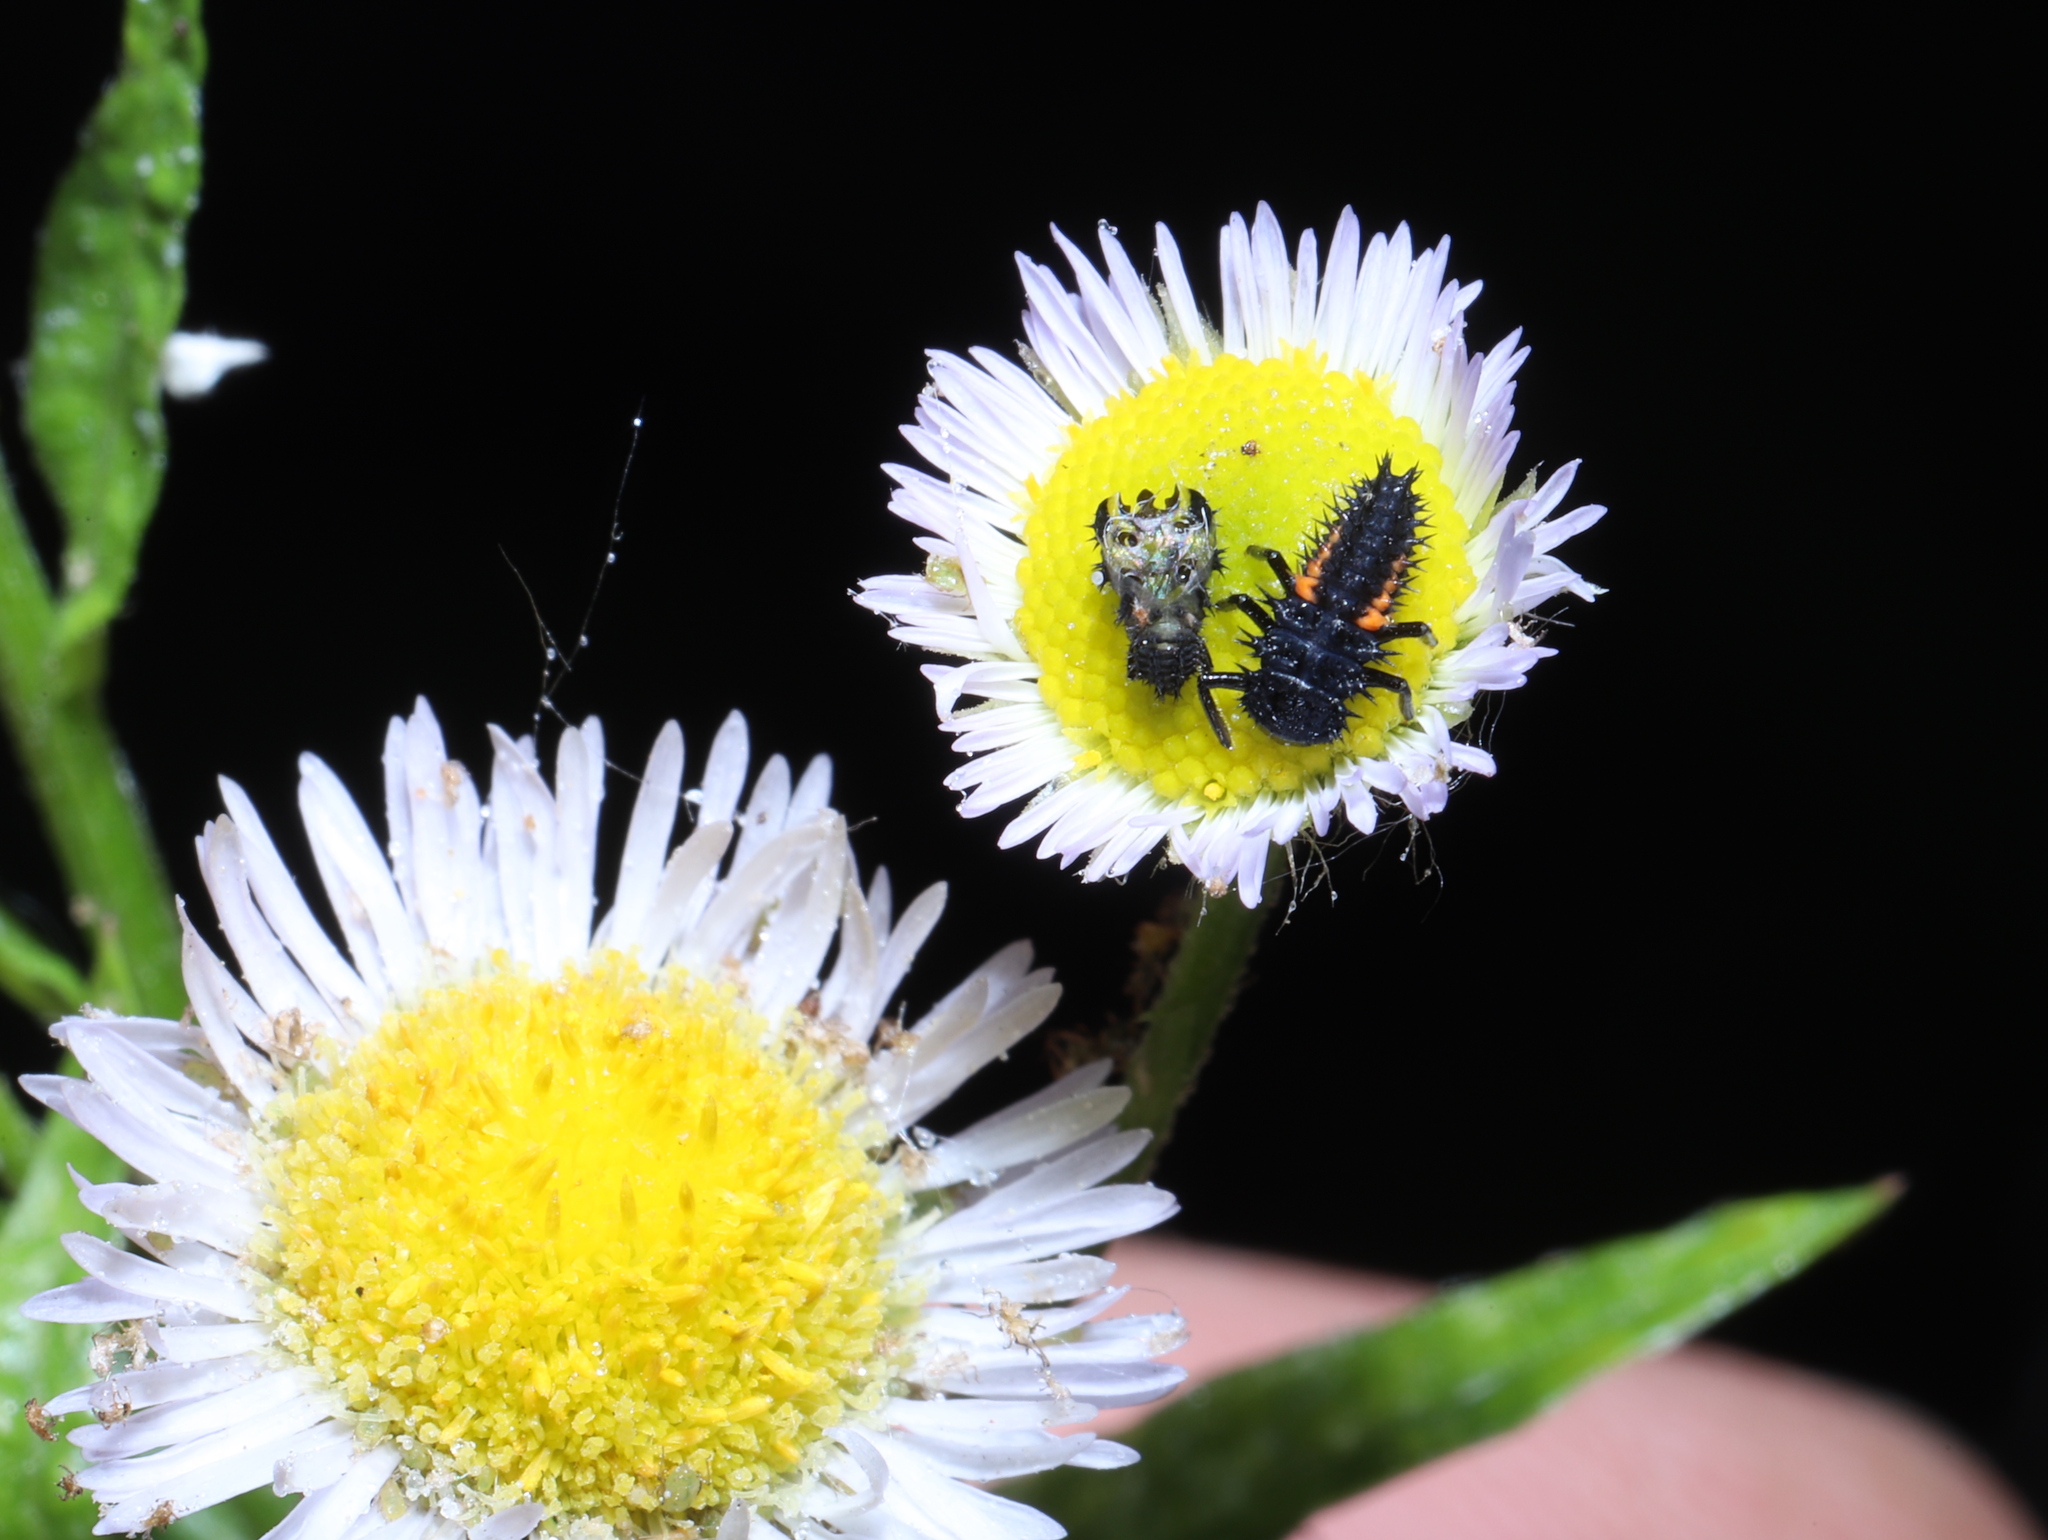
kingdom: Animalia
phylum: Arthropoda
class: Insecta
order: Coleoptera
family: Coccinellidae
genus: Harmonia
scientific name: Harmonia axyridis
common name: Harlequin ladybird
